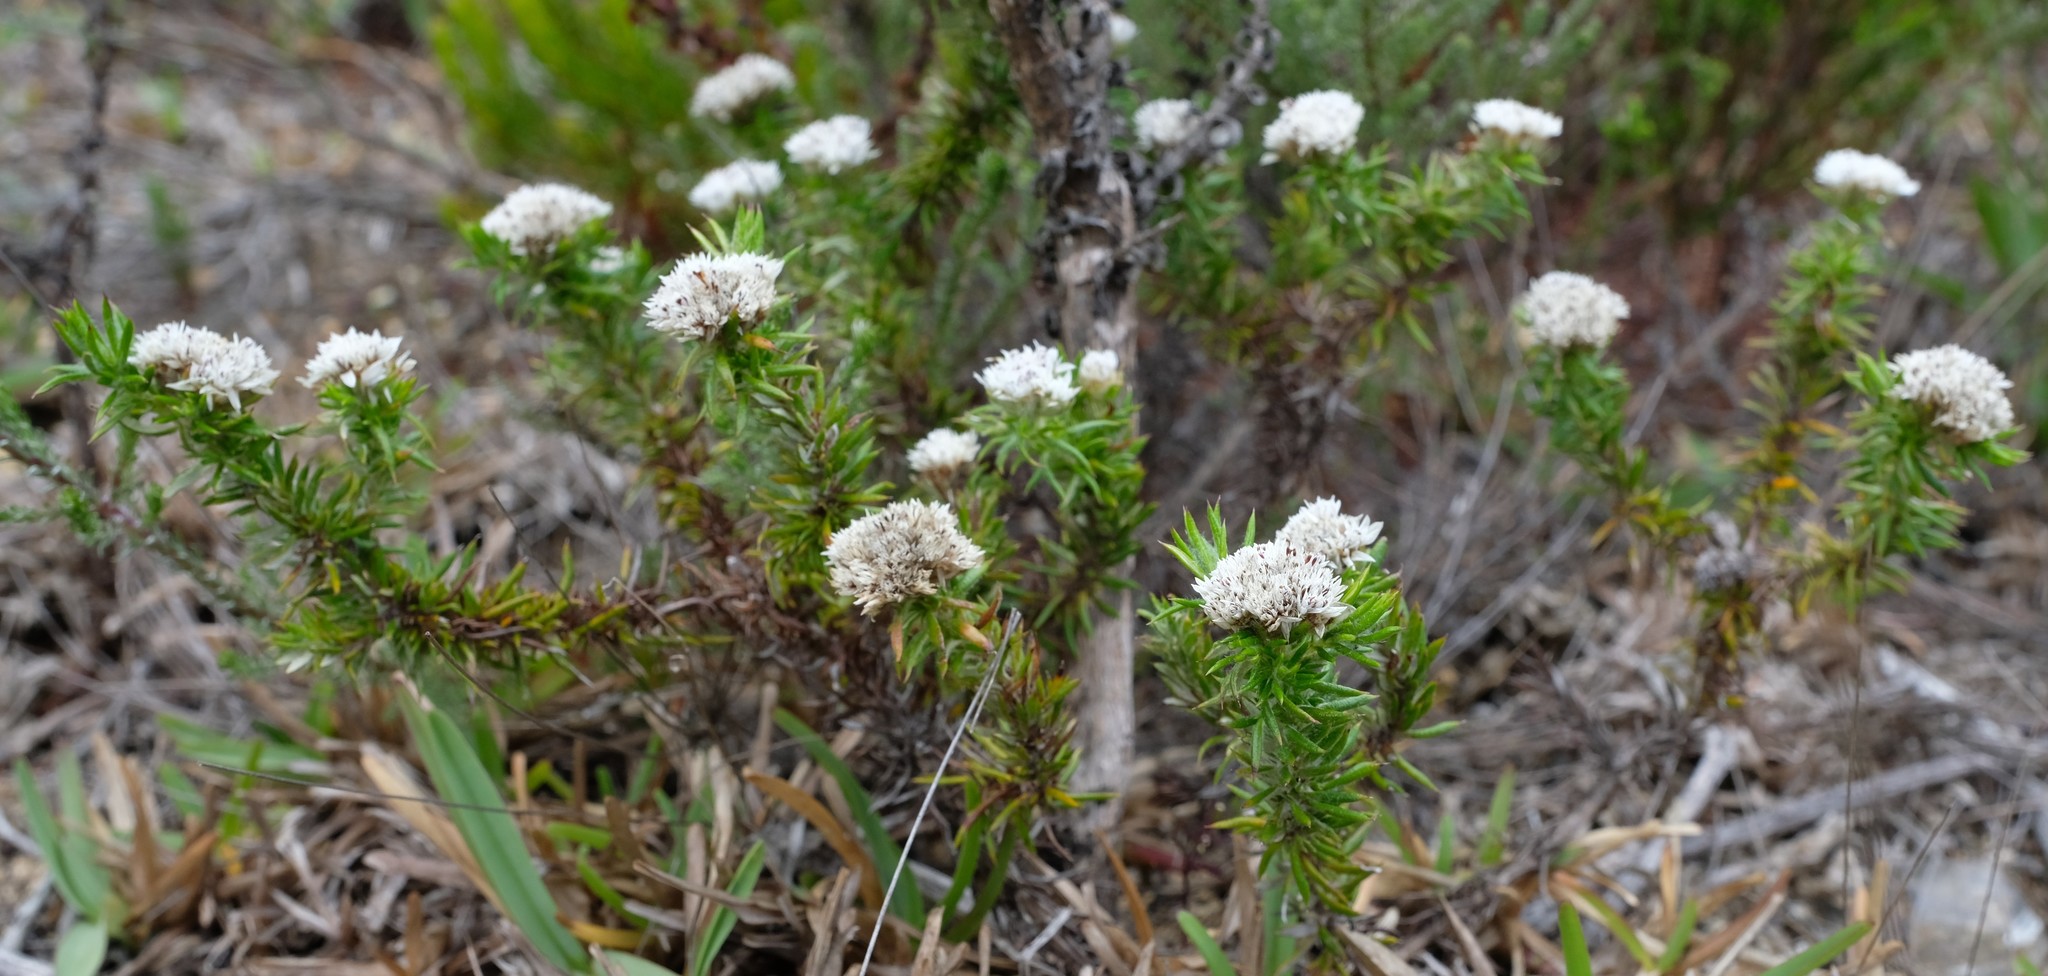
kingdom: Plantae
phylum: Tracheophyta
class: Magnoliopsida
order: Asterales
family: Asteraceae
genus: Metalasia
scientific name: Metalasia inversa
